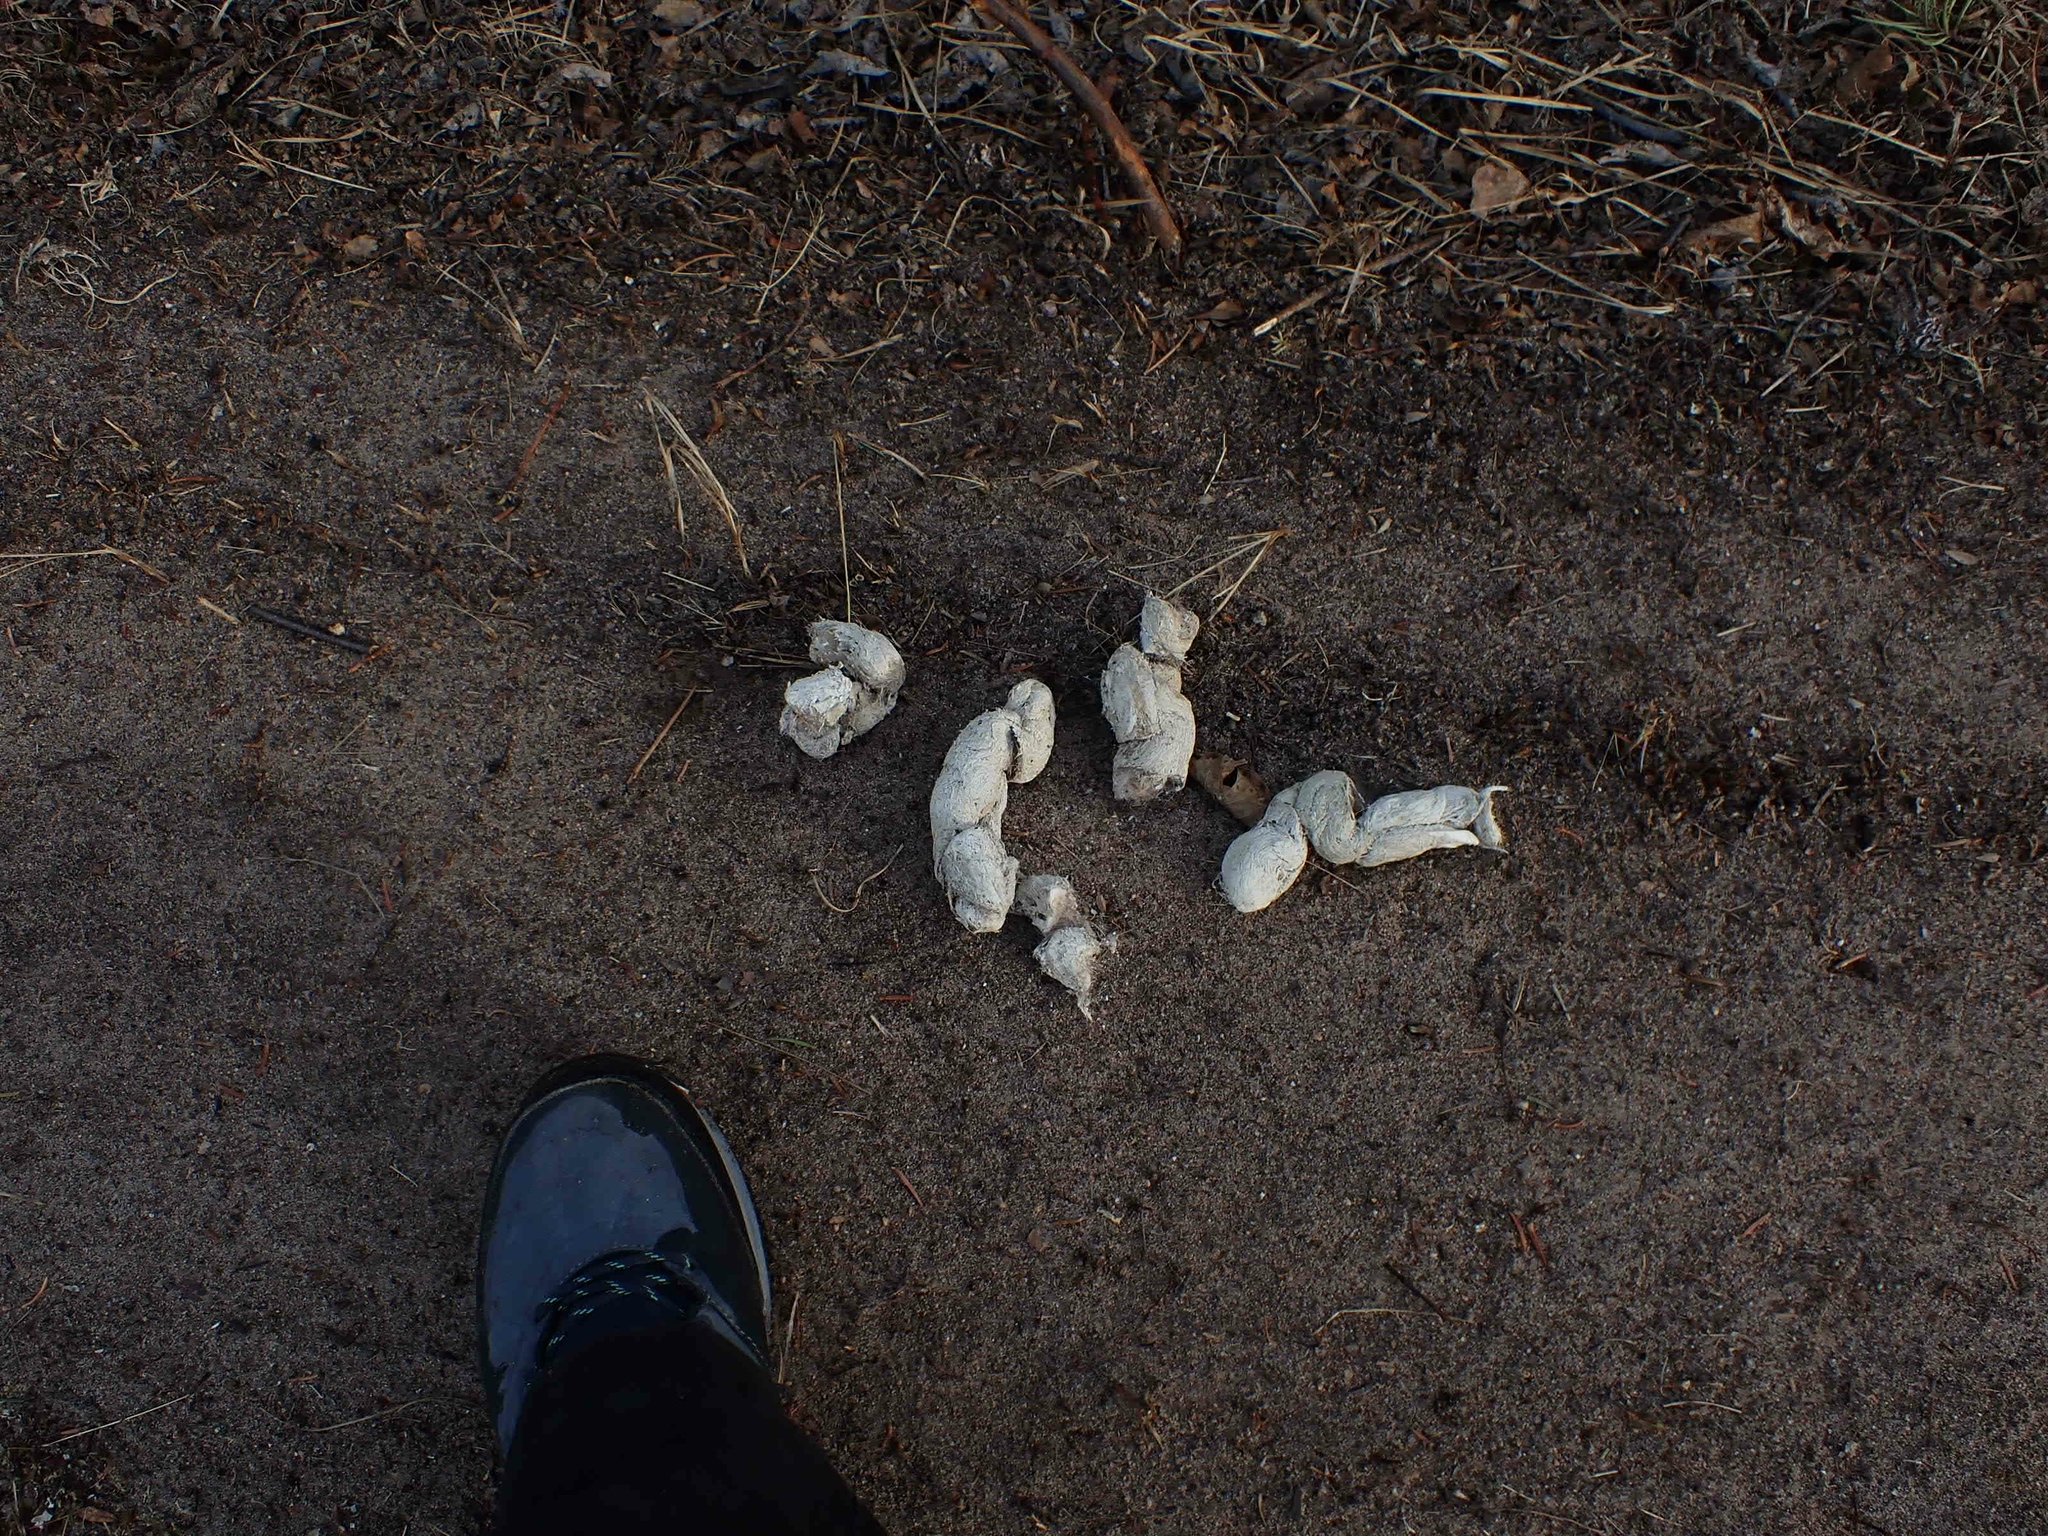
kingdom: Animalia
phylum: Chordata
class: Mammalia
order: Carnivora
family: Canidae
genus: Canis
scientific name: Canis lupus
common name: Gray wolf
